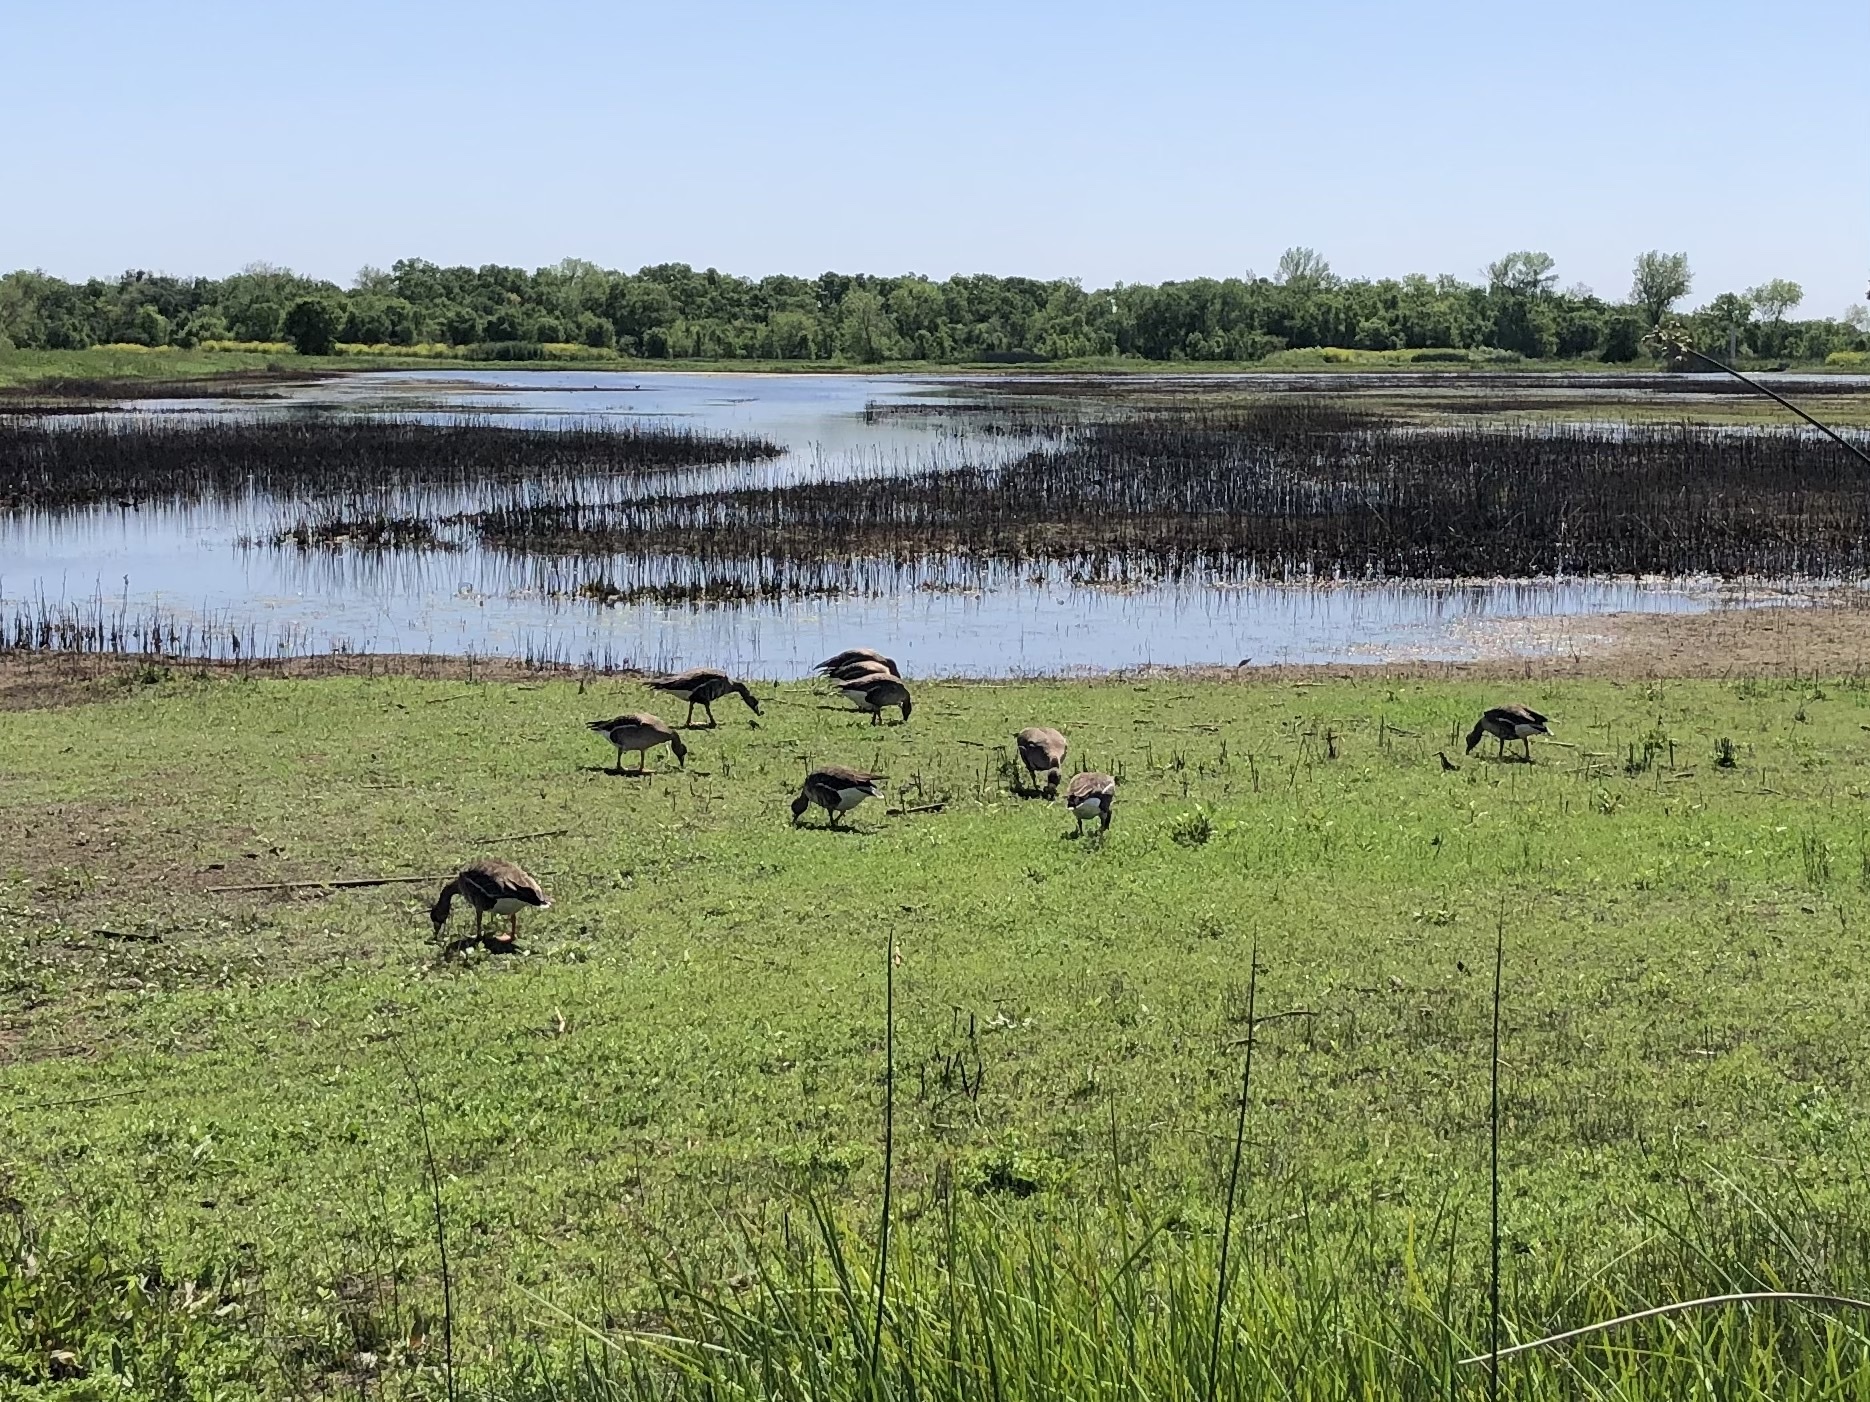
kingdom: Animalia
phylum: Chordata
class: Aves
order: Anseriformes
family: Anatidae
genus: Anser
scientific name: Anser albifrons
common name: Greater white-fronted goose
